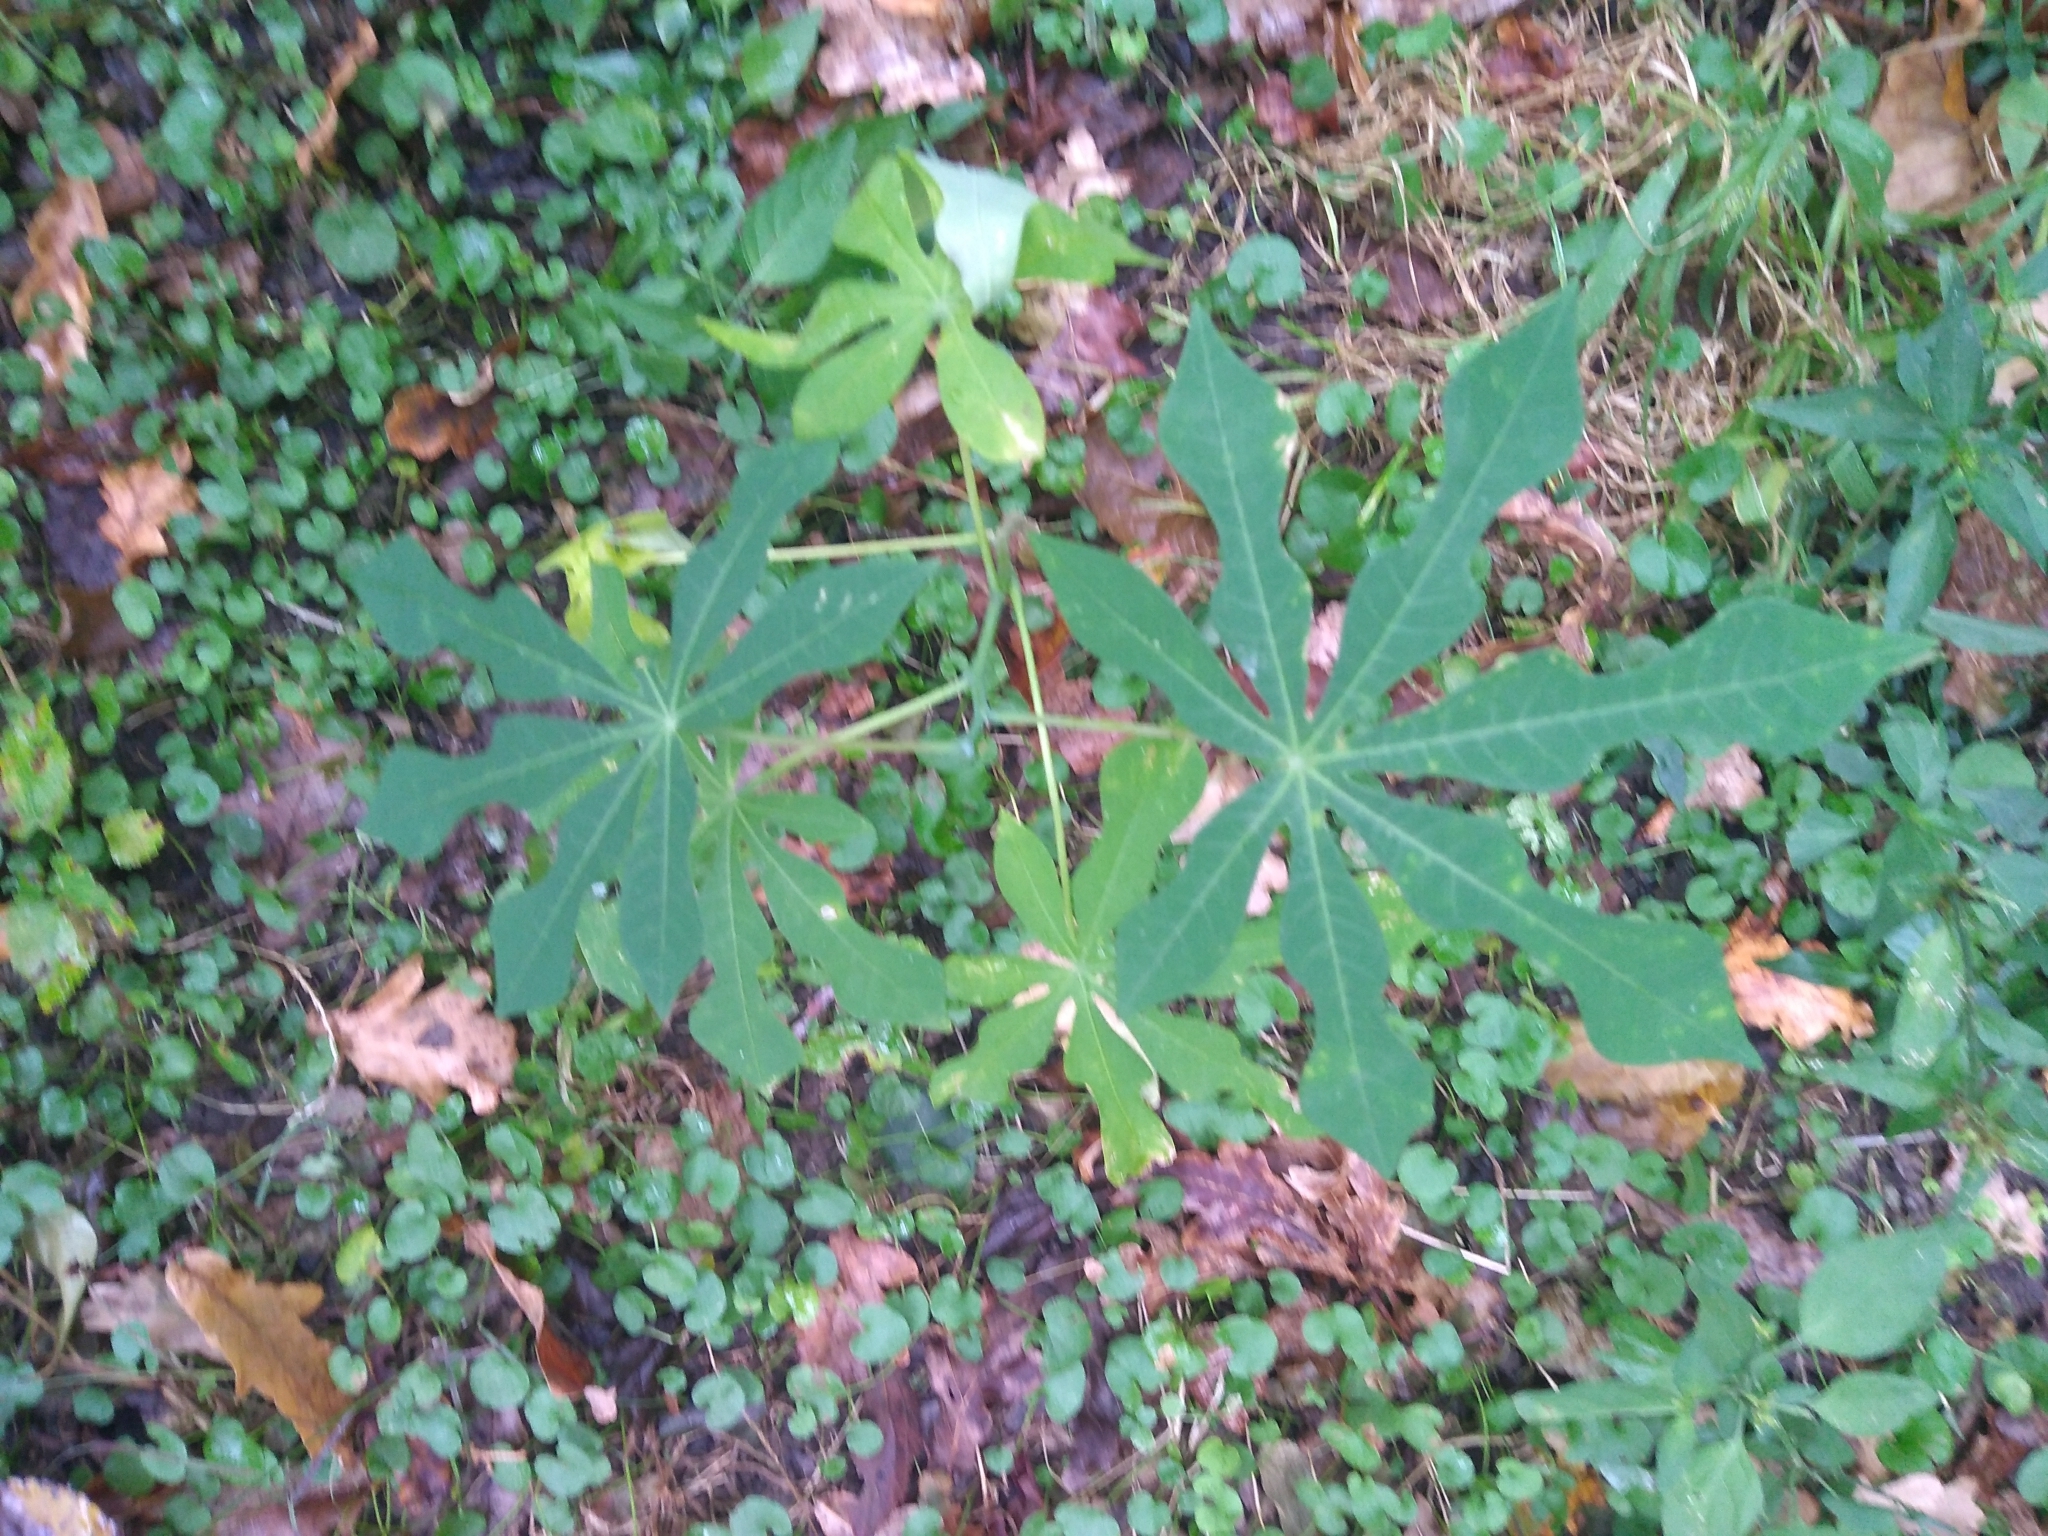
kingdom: Plantae
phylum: Tracheophyta
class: Magnoliopsida
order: Malpighiales
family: Euphorbiaceae
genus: Manihot
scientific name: Manihot grahamii
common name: Graham's manihot
